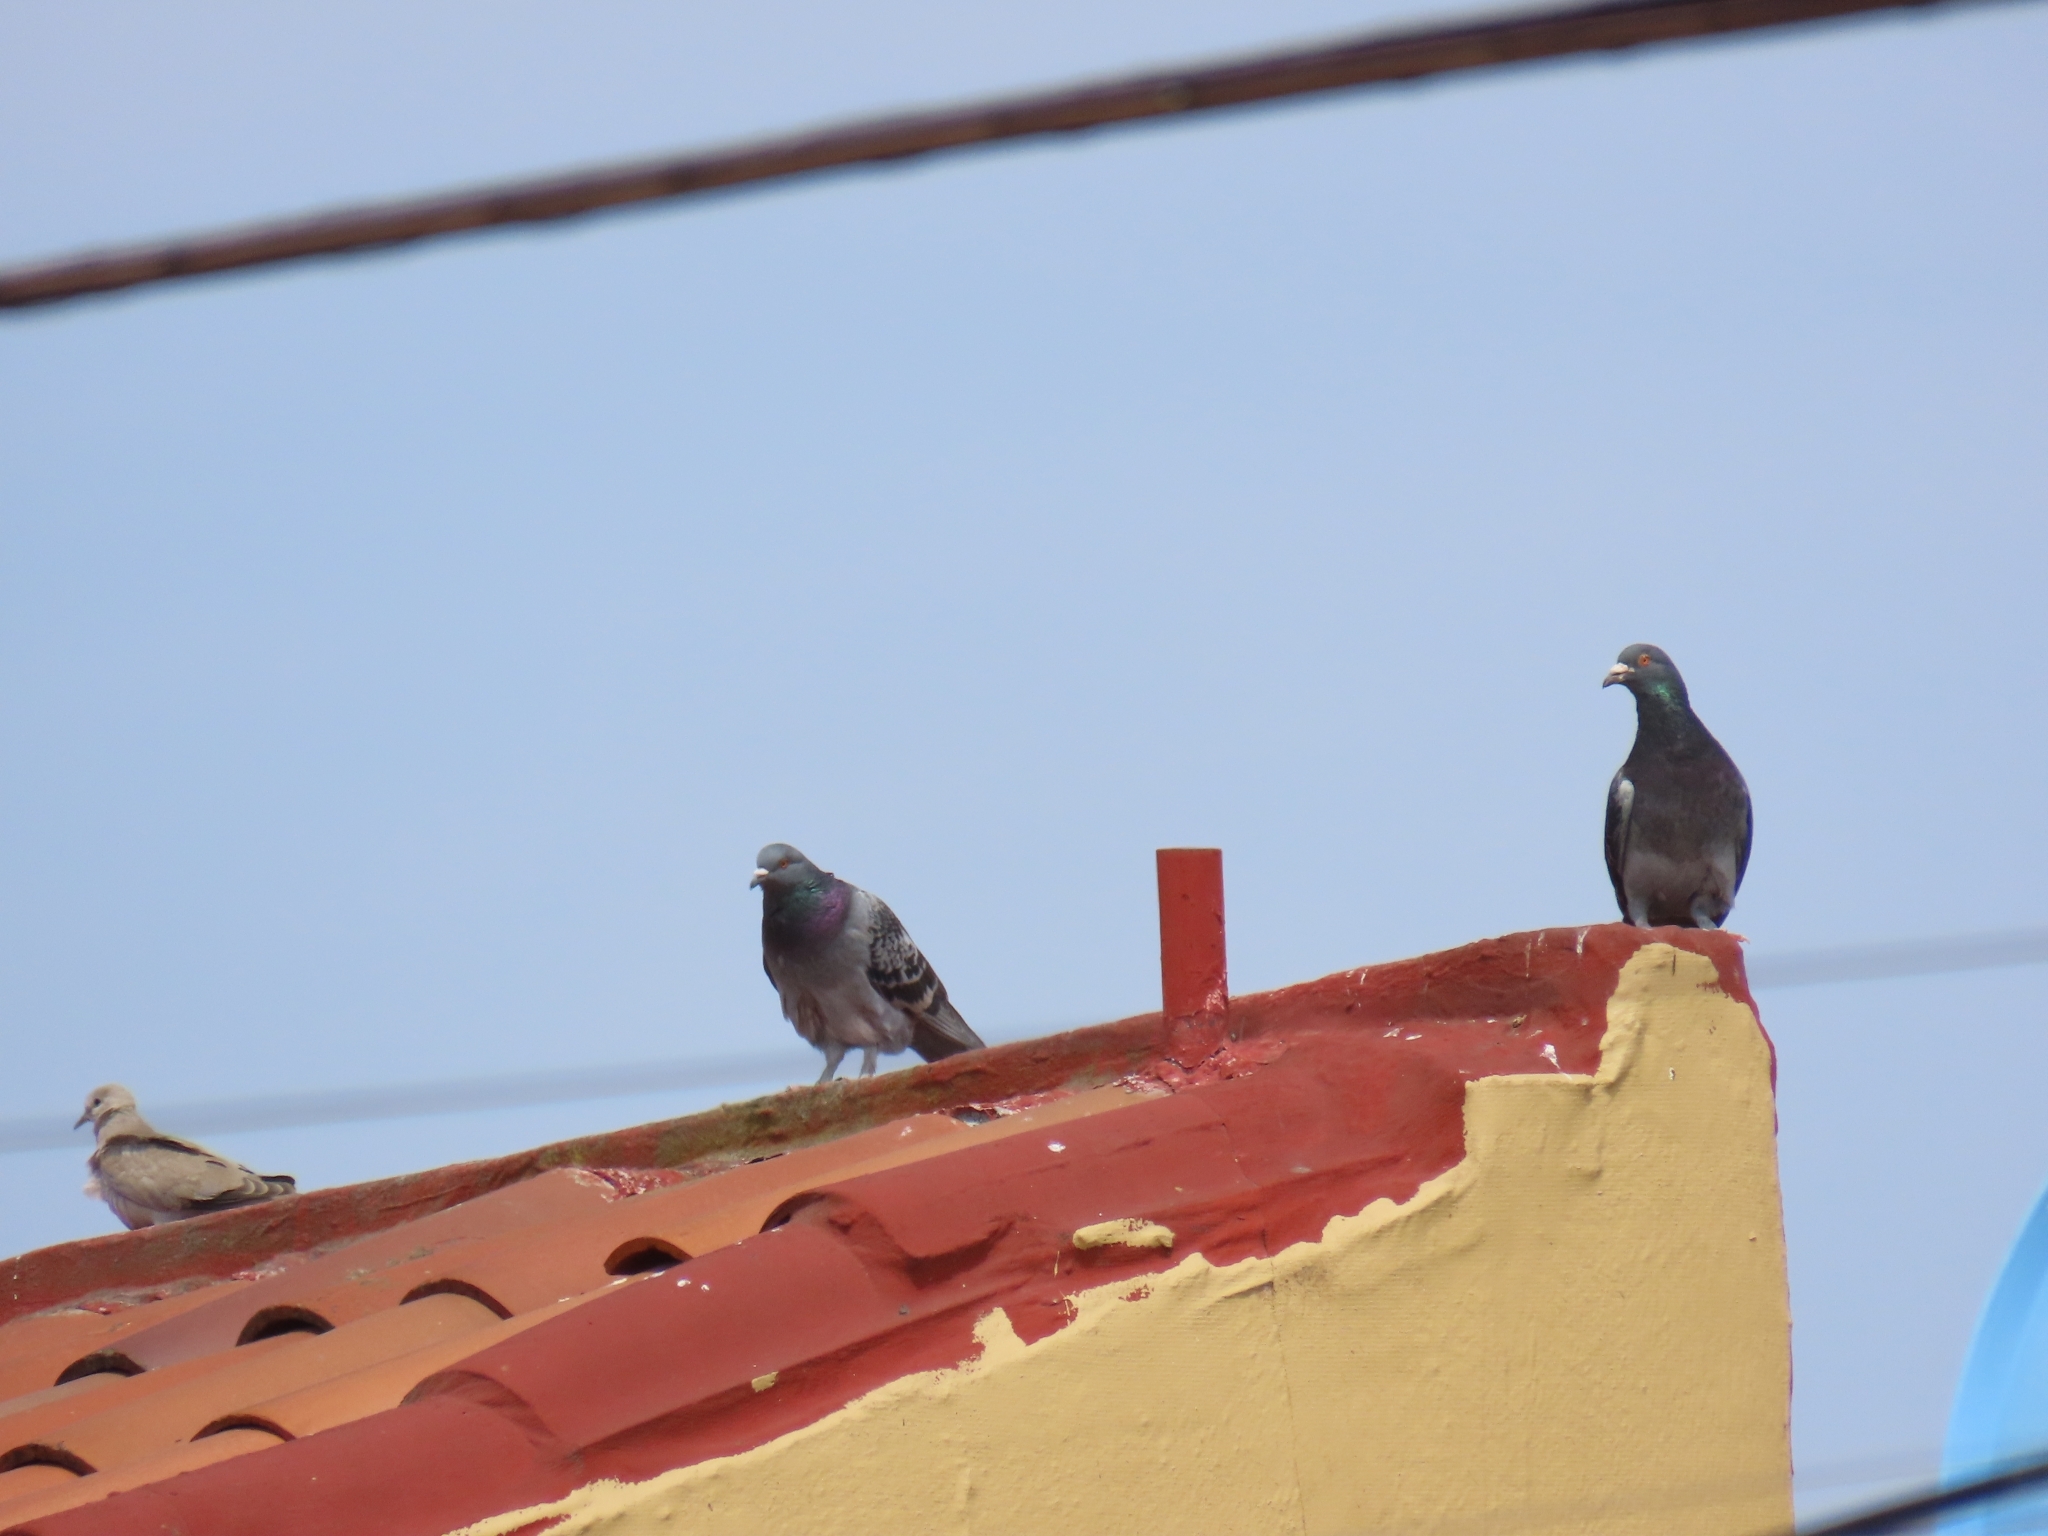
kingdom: Animalia
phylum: Chordata
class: Aves
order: Columbiformes
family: Columbidae
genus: Columba
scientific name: Columba livia
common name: Rock pigeon
